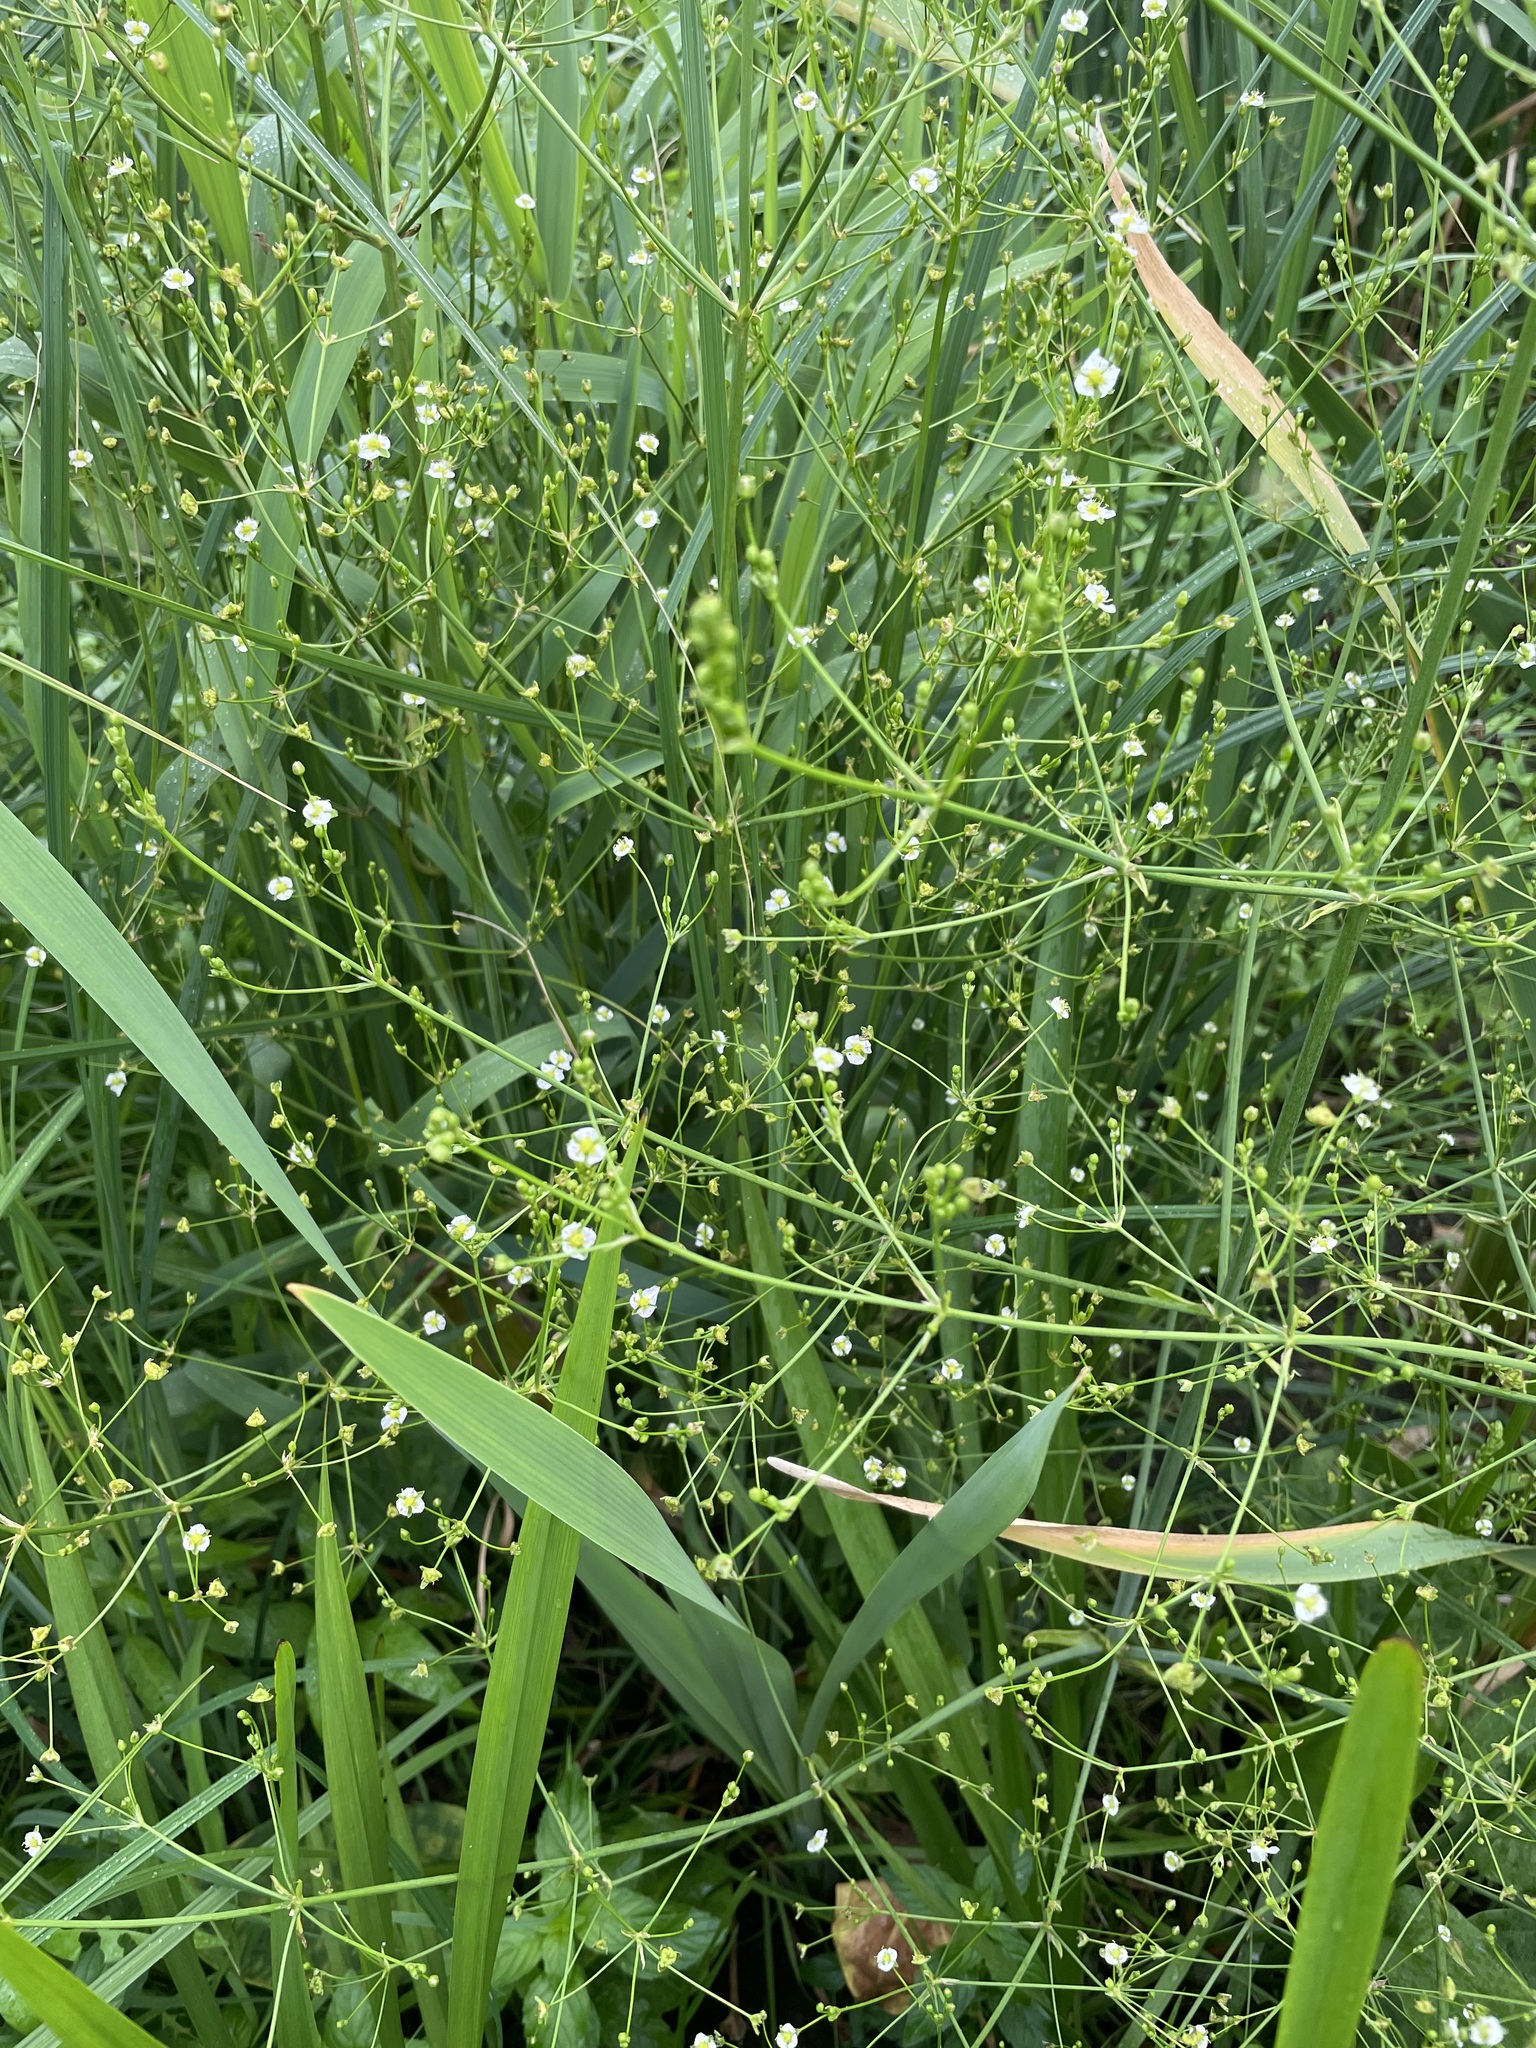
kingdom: Plantae
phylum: Tracheophyta
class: Liliopsida
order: Alismatales
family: Alismataceae
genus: Alisma
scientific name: Alisma plantago-aquatica
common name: Water-plantain
